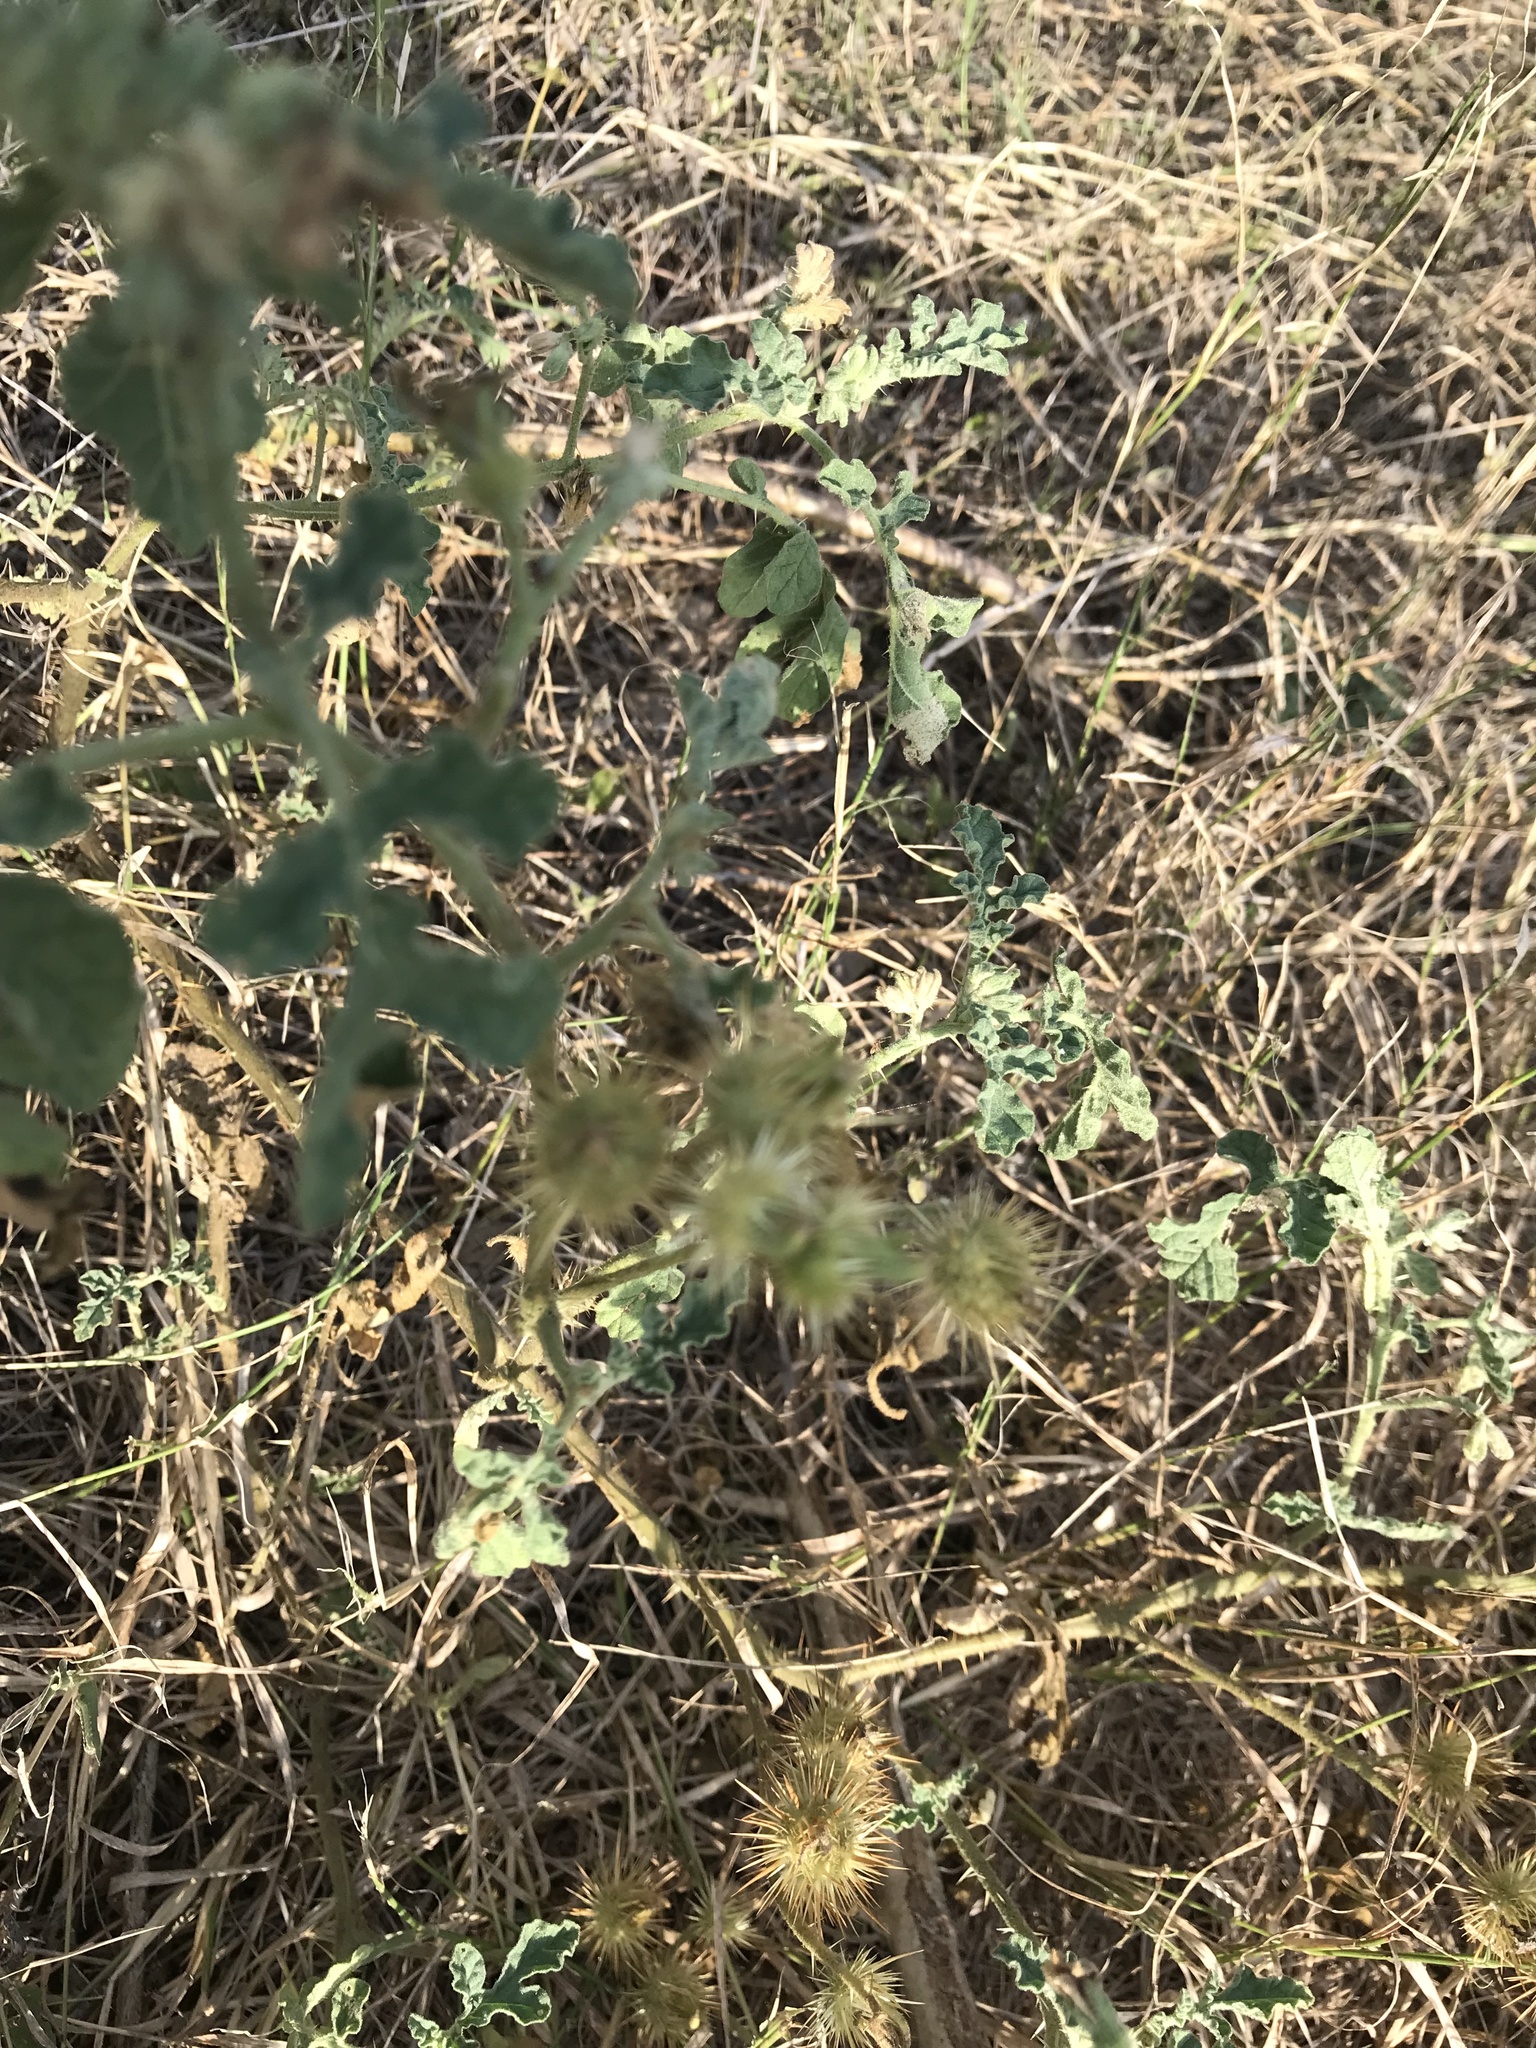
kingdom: Plantae
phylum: Tracheophyta
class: Magnoliopsida
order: Solanales
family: Solanaceae
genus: Solanum
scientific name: Solanum angustifolium
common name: Buffalobur nightshade
